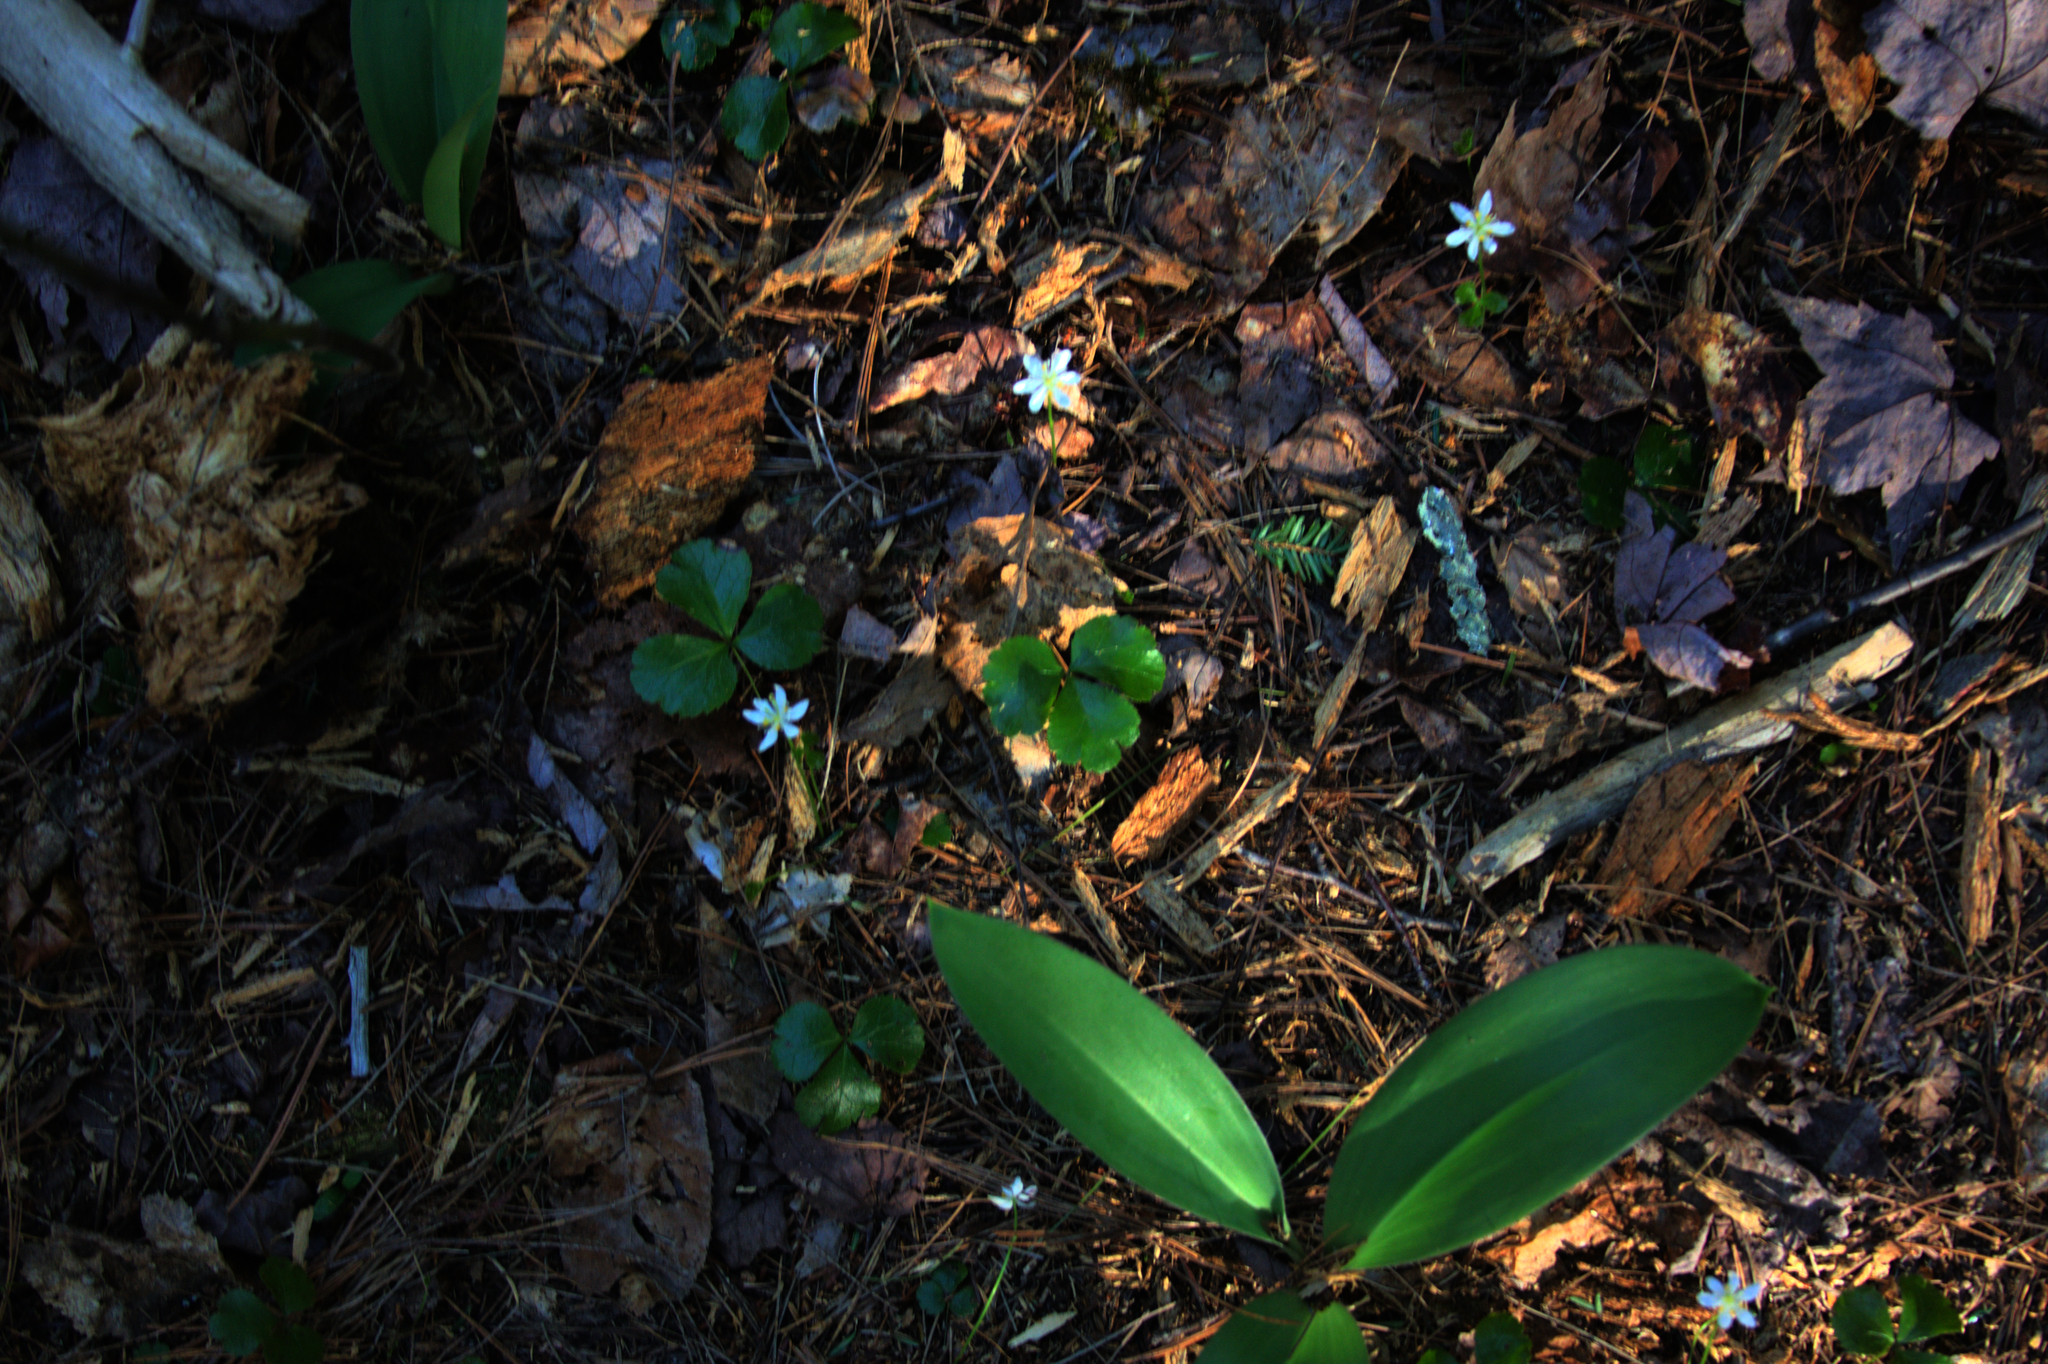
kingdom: Plantae
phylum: Tracheophyta
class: Magnoliopsida
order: Ranunculales
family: Ranunculaceae
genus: Coptis
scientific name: Coptis trifolia
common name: Canker-root
